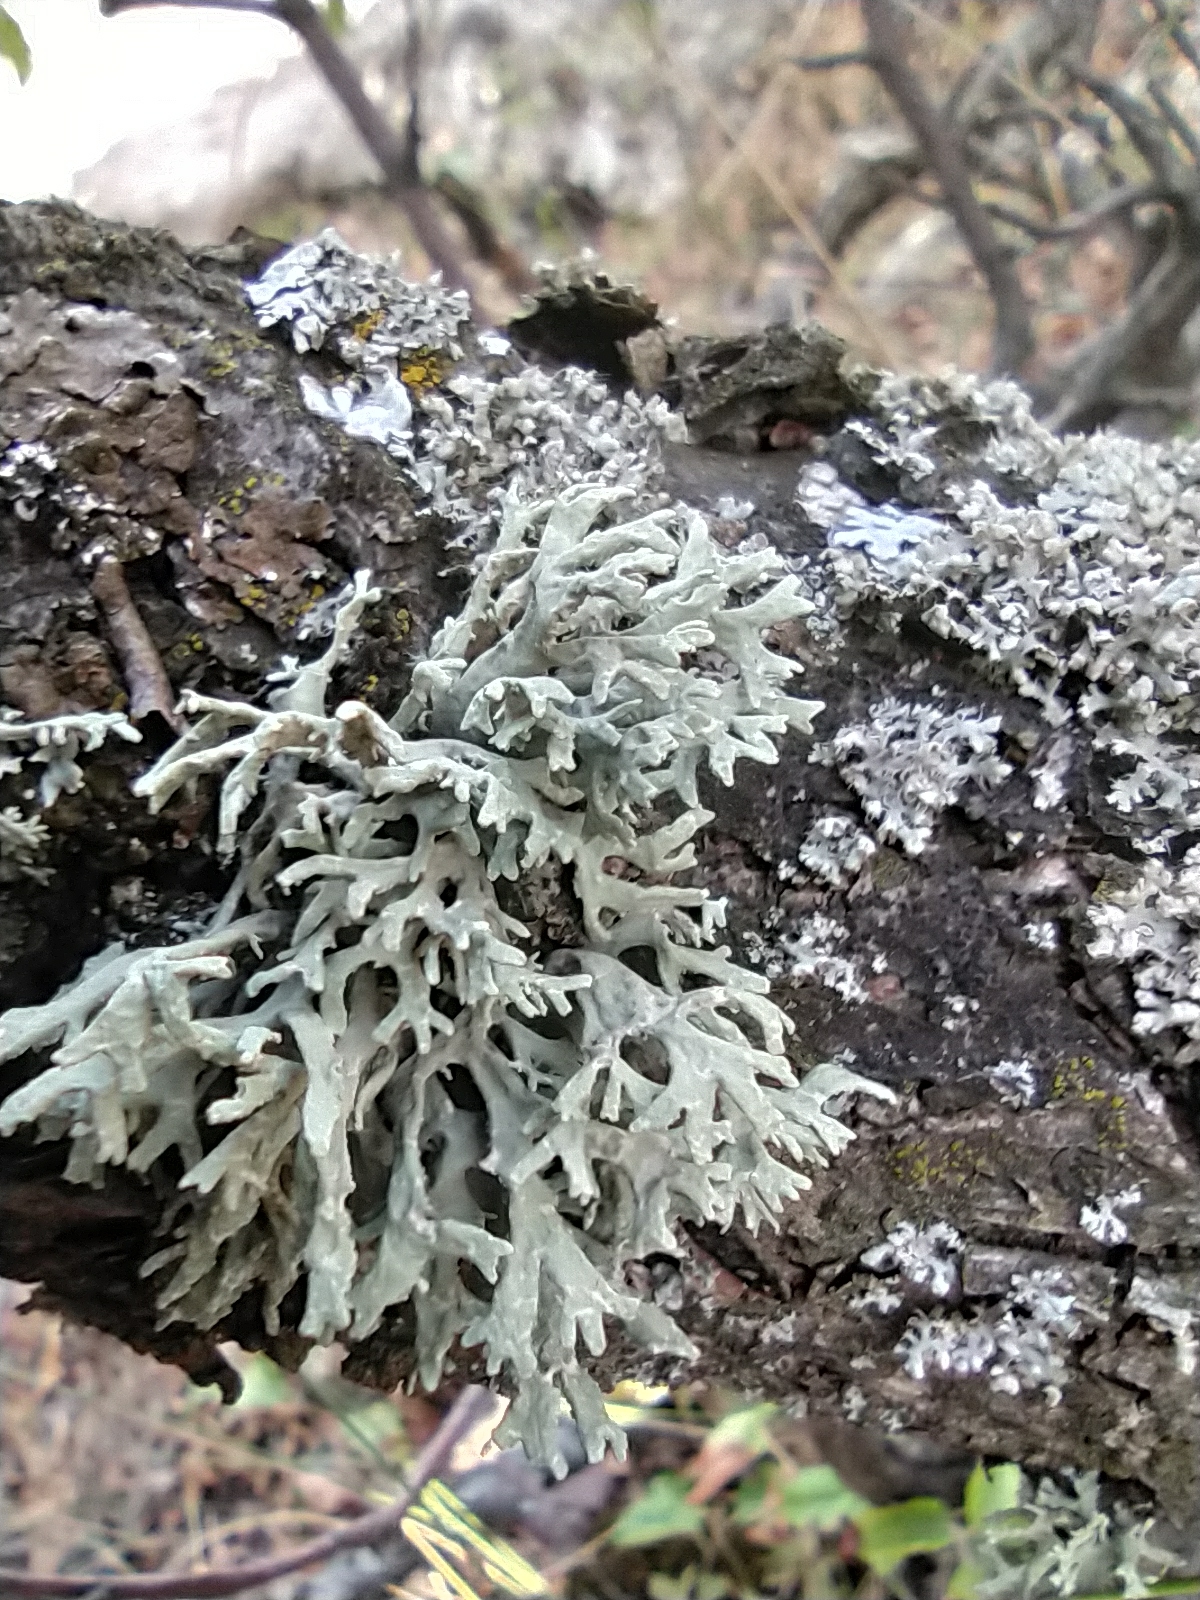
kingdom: Fungi
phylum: Ascomycota
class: Lecanoromycetes
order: Lecanorales
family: Parmeliaceae
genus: Evernia
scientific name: Evernia prunastri
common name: Oak moss
